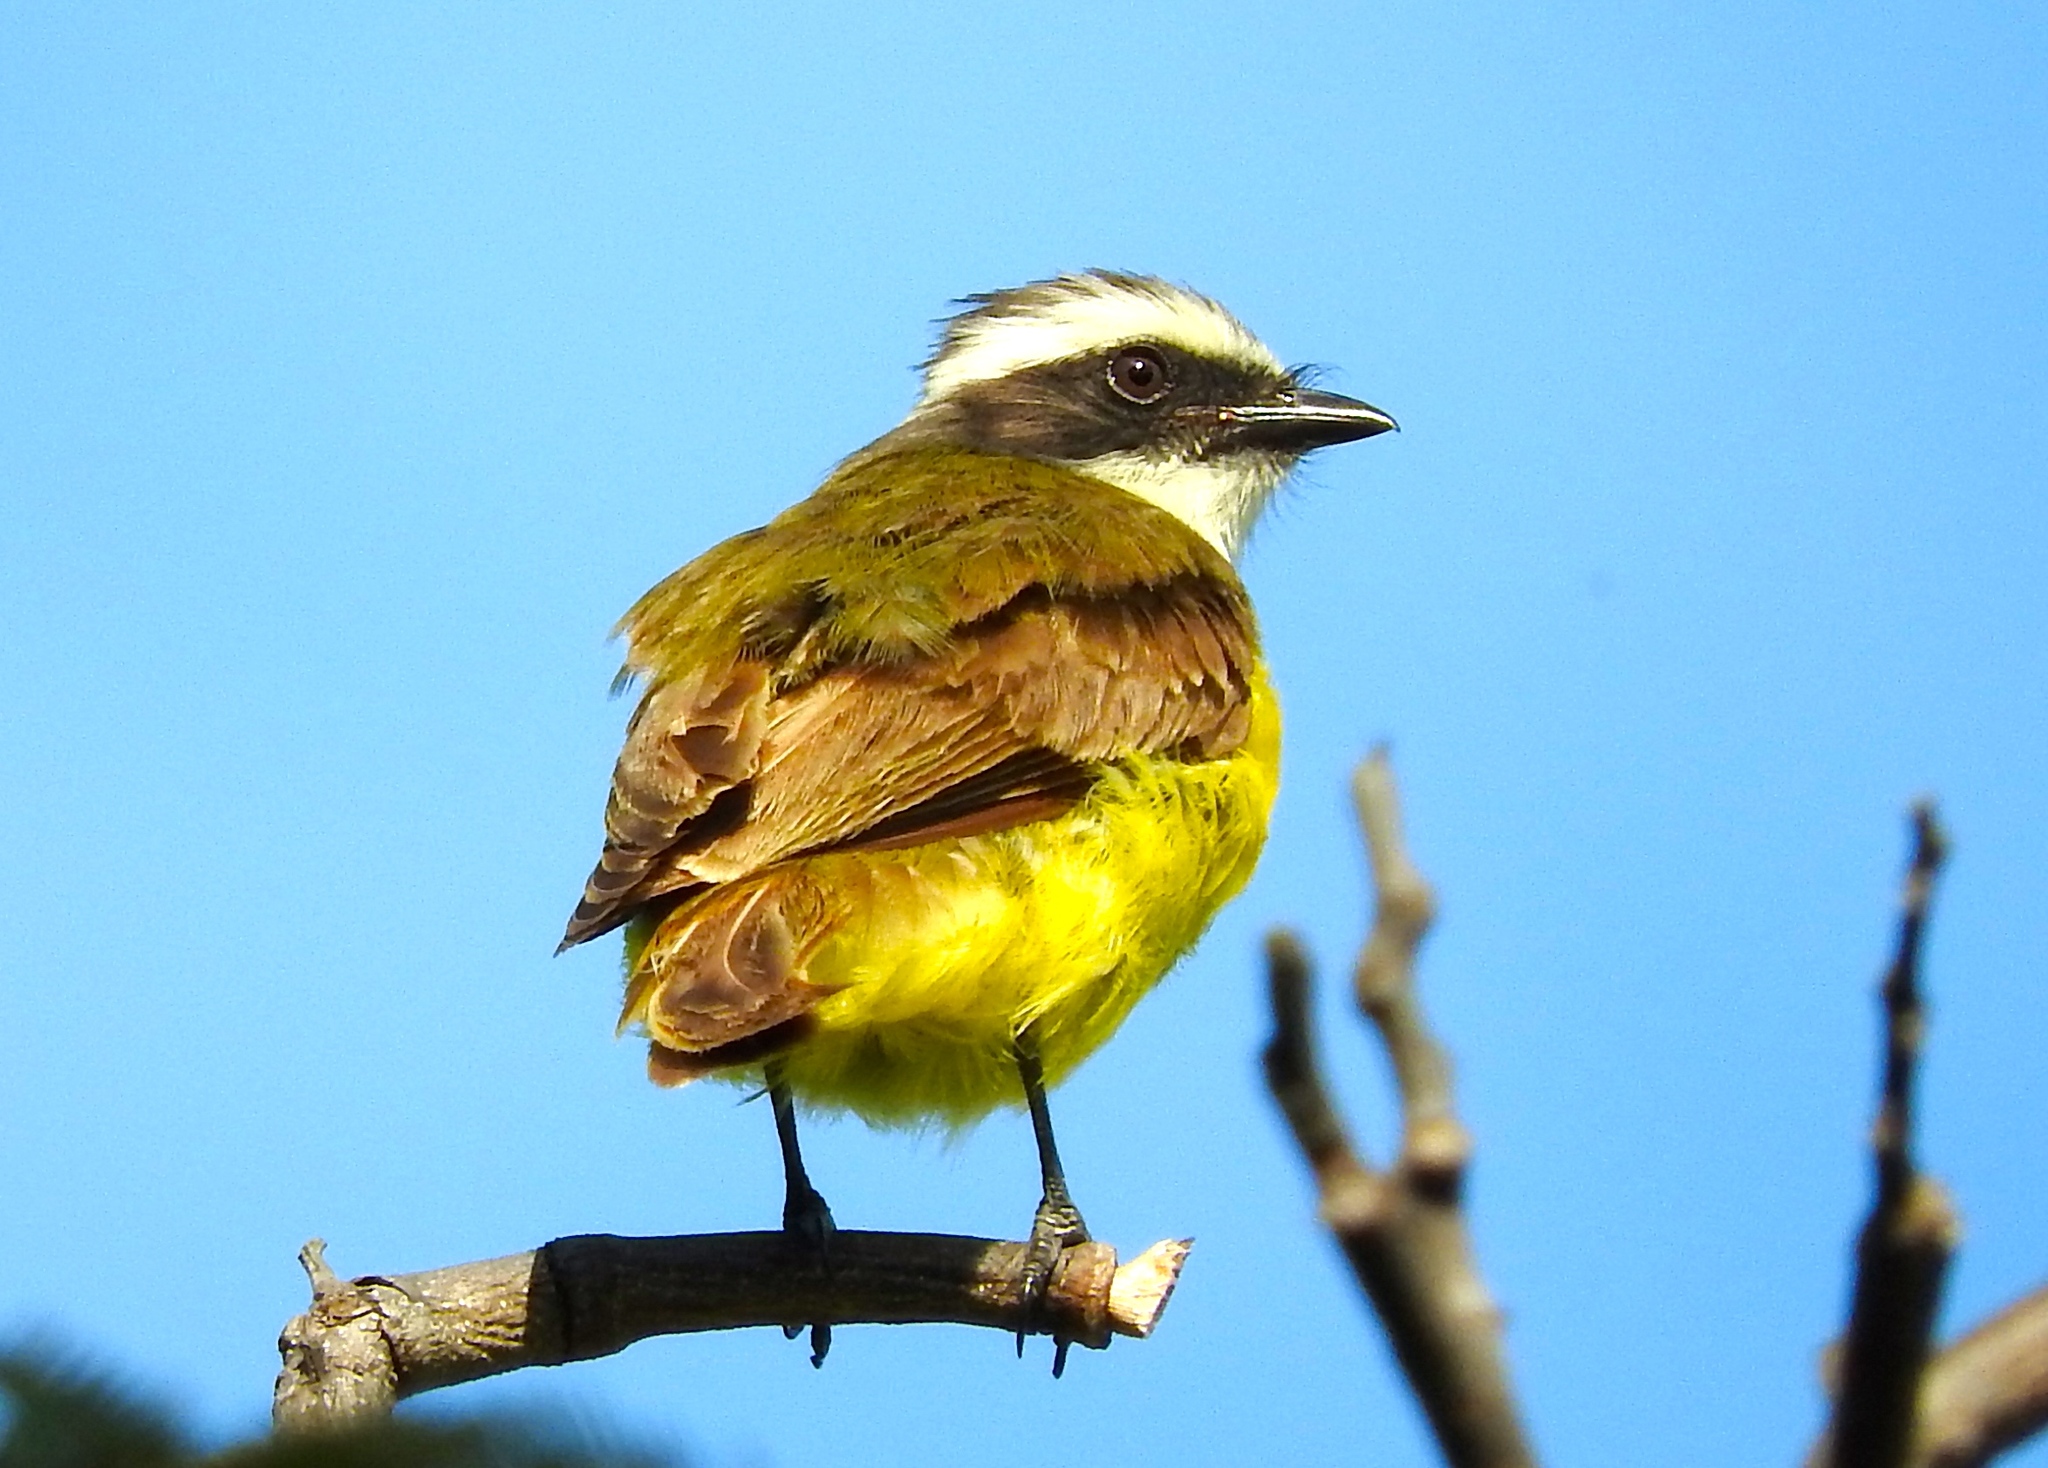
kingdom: Animalia
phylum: Chordata
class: Aves
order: Passeriformes
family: Tyrannidae
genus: Myiozetetes
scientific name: Myiozetetes similis
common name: Social flycatcher
